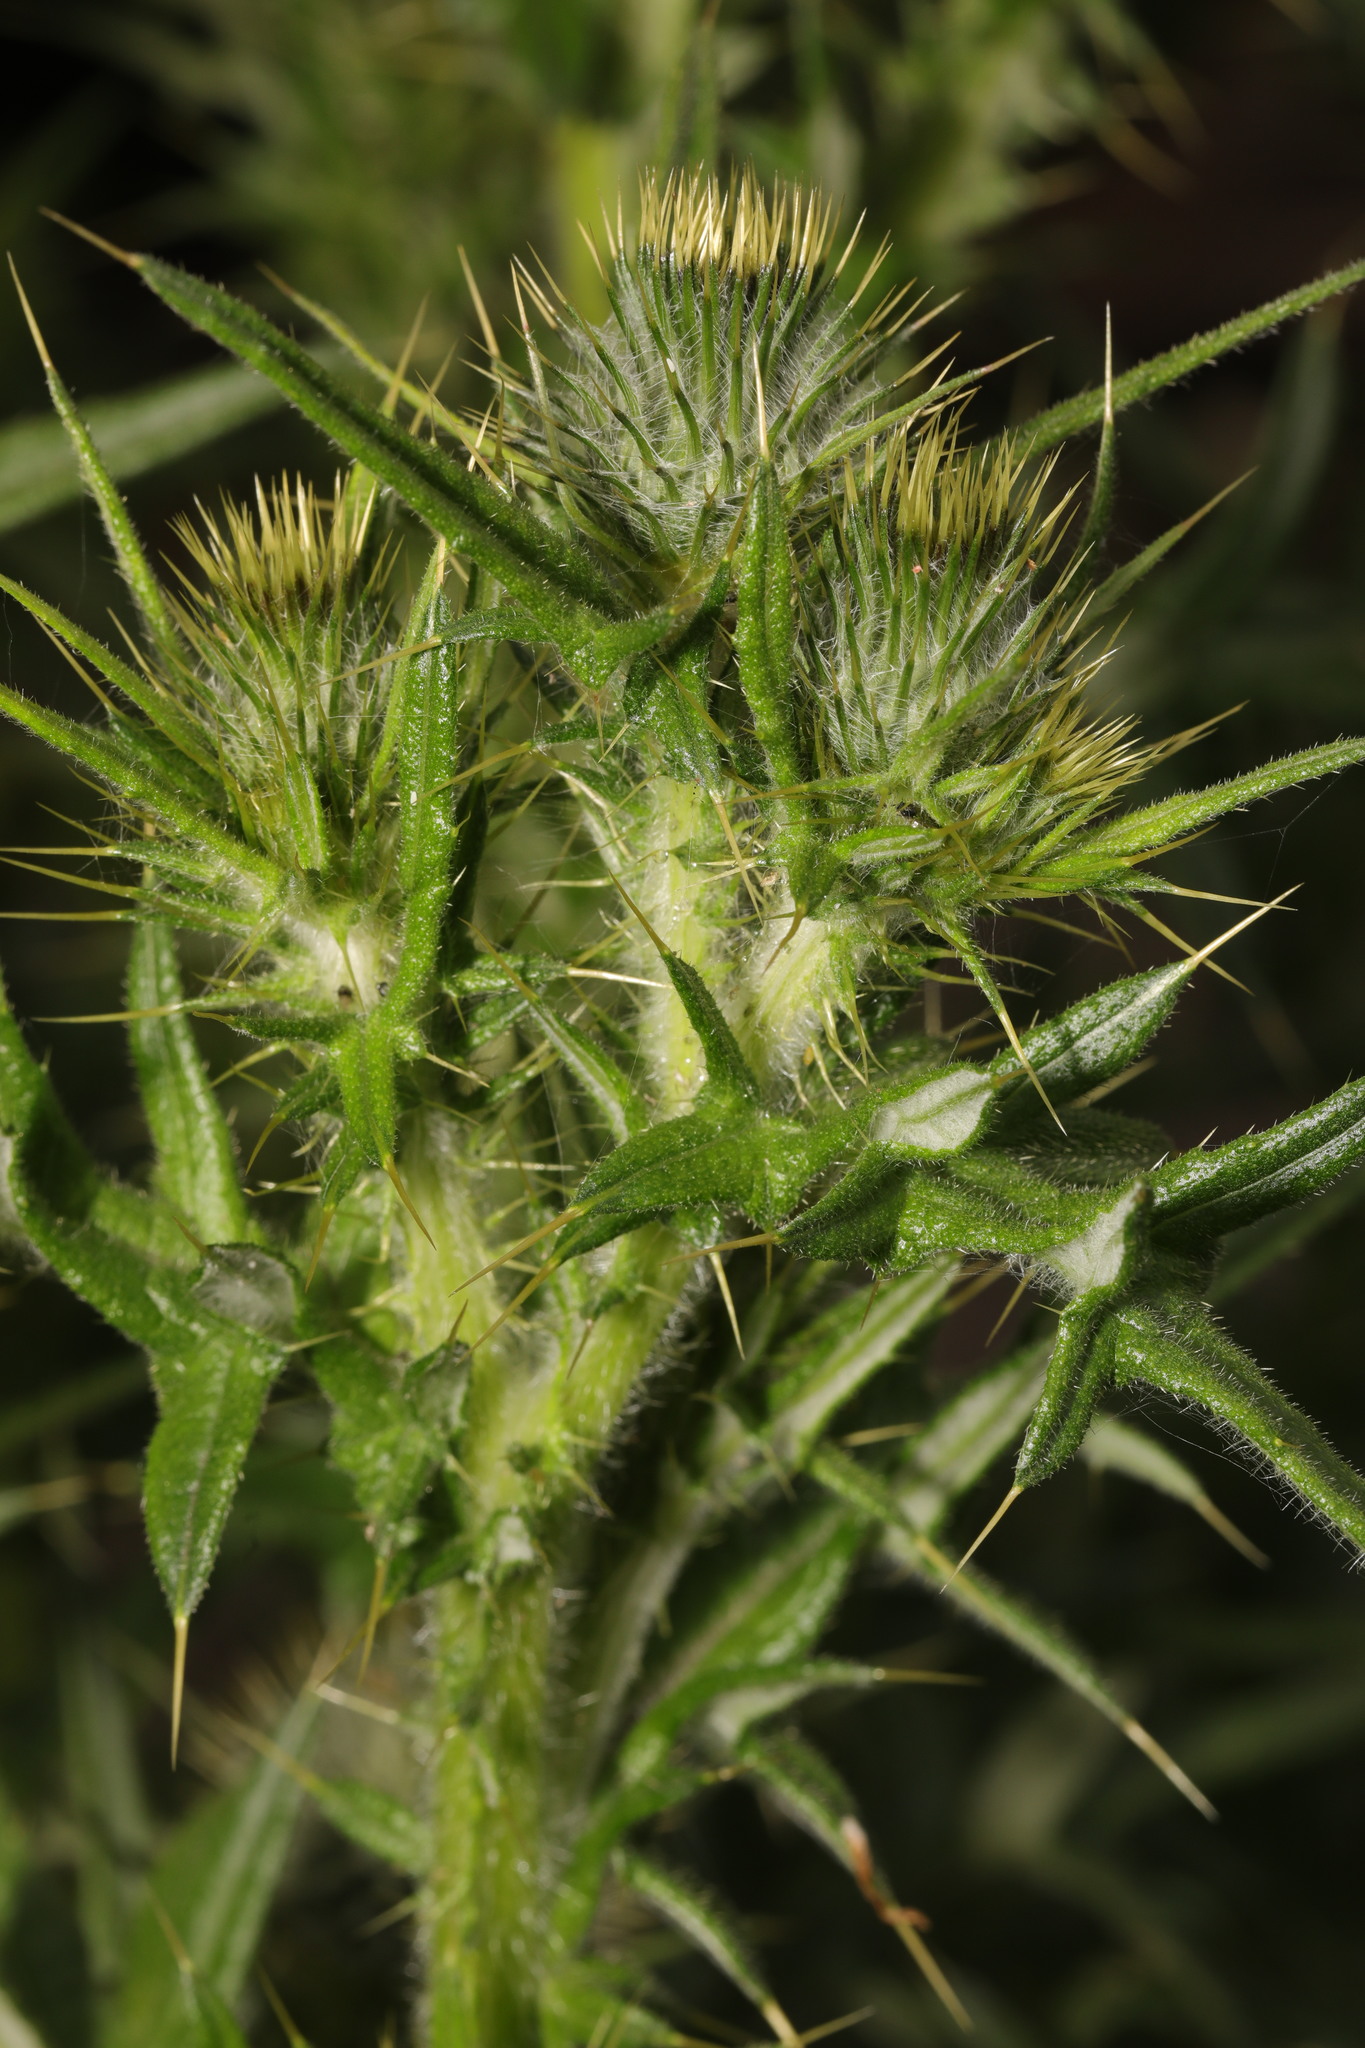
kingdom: Plantae
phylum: Tracheophyta
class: Magnoliopsida
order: Asterales
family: Asteraceae
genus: Cirsium
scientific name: Cirsium vulgare
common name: Bull thistle
